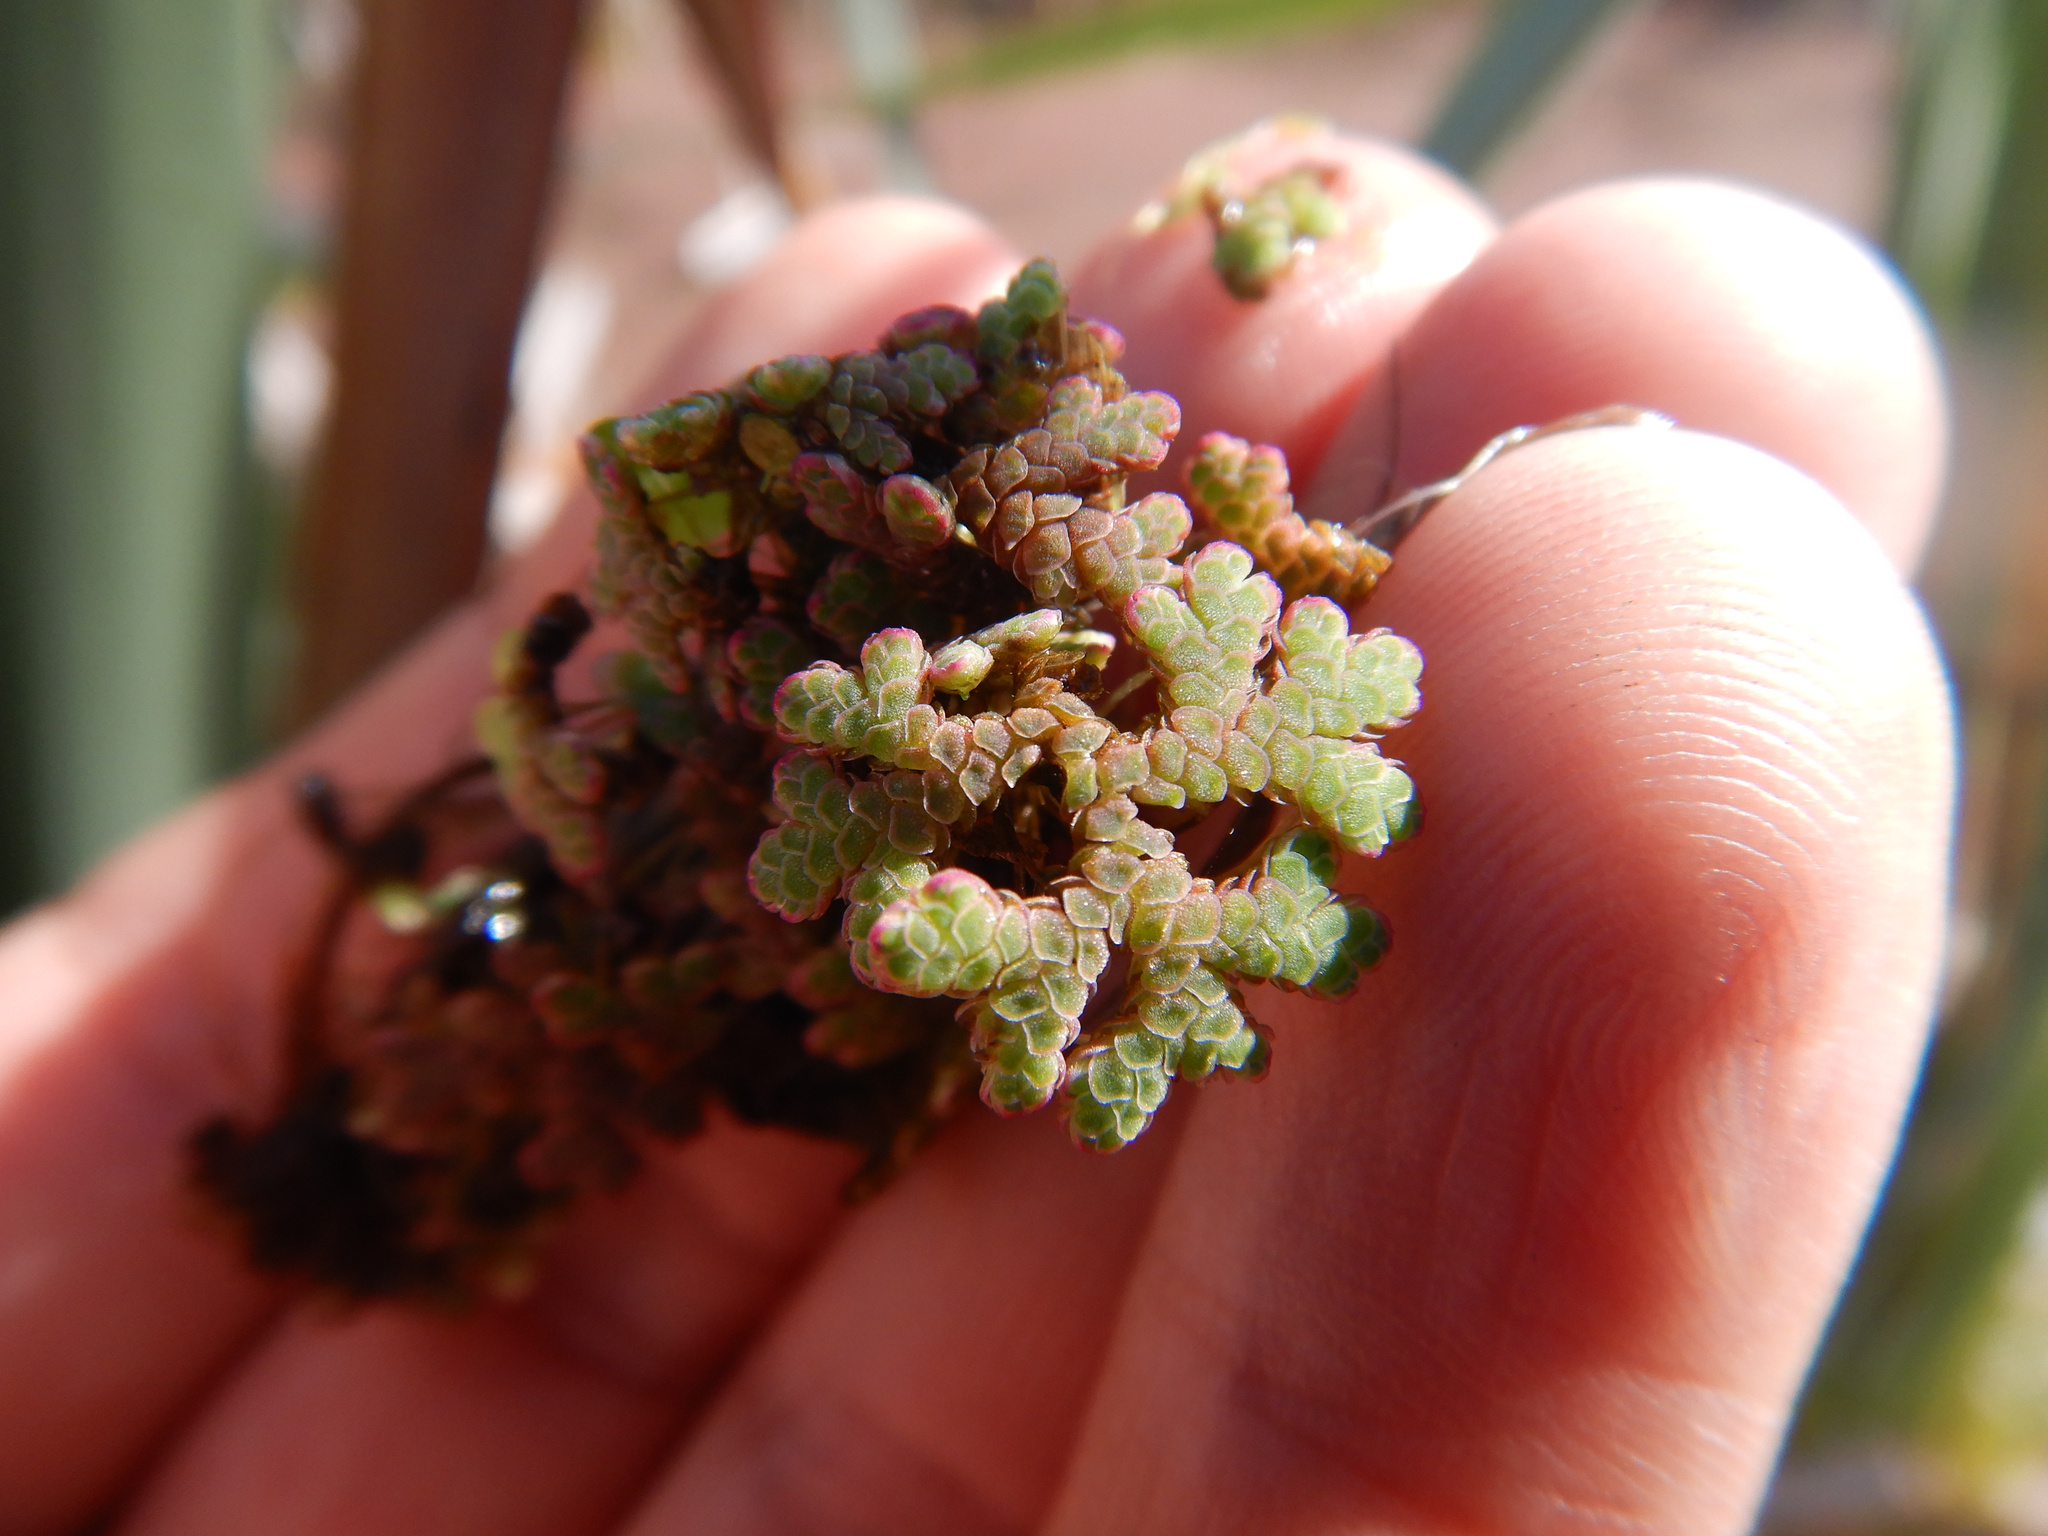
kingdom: Plantae
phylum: Tracheophyta
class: Polypodiopsida
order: Salviniales
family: Salviniaceae
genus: Azolla
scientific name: Azolla rubra
